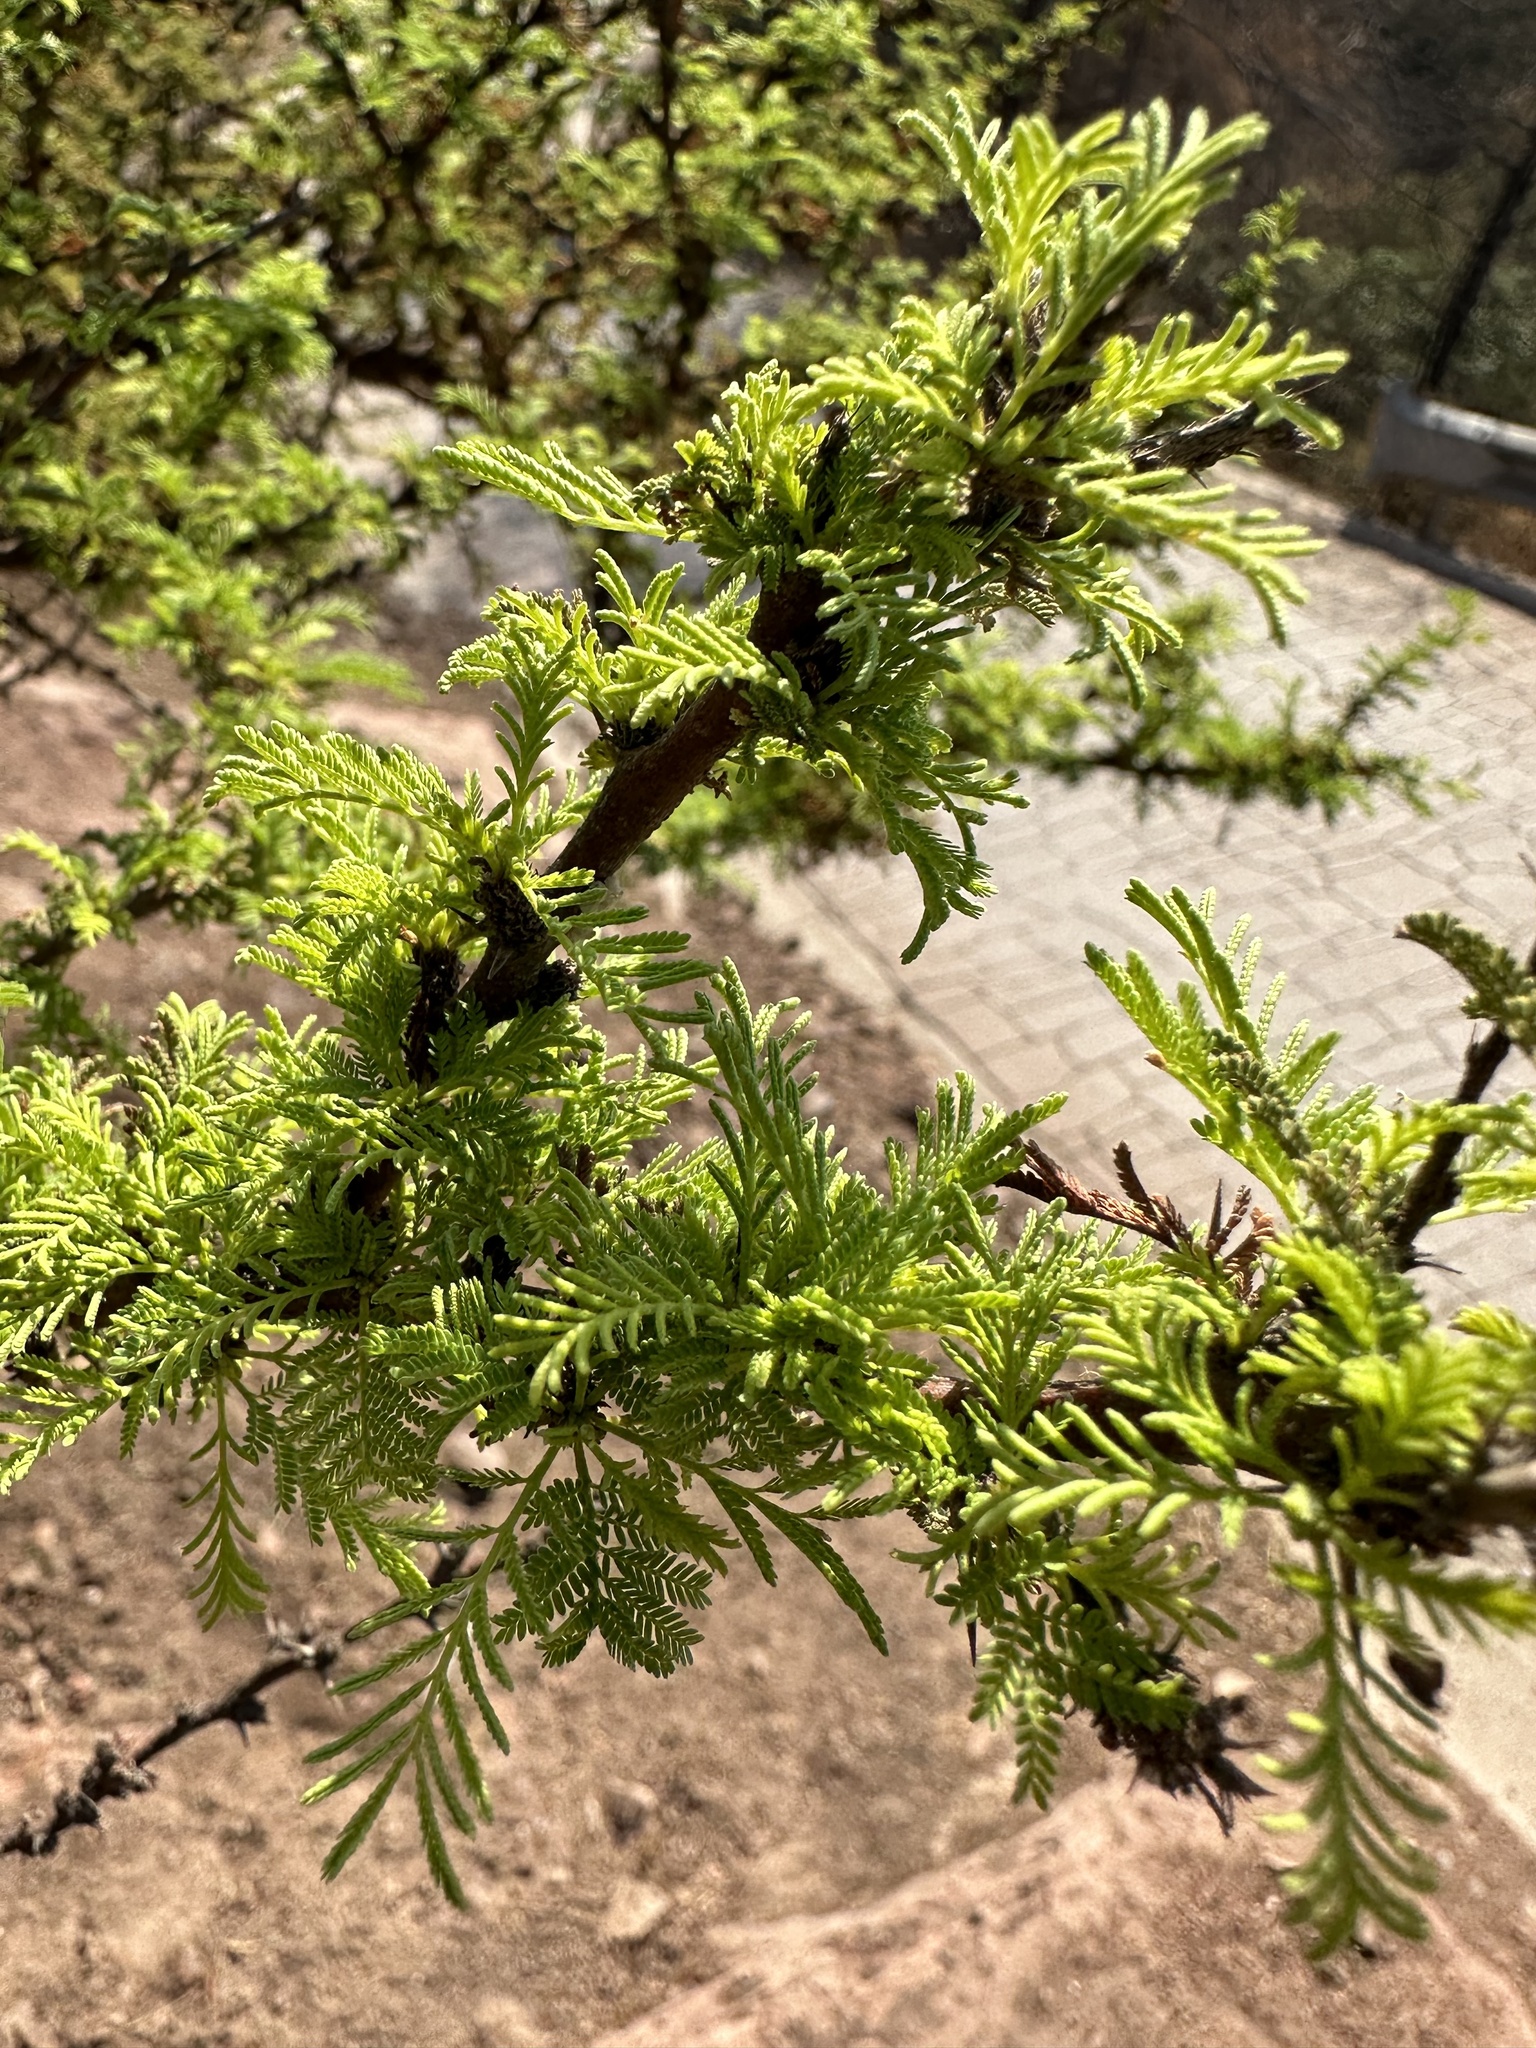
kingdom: Plantae
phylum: Tracheophyta
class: Magnoliopsida
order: Fabales
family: Fabaceae
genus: Vachellia
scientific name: Vachellia caven
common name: Roman cassie
